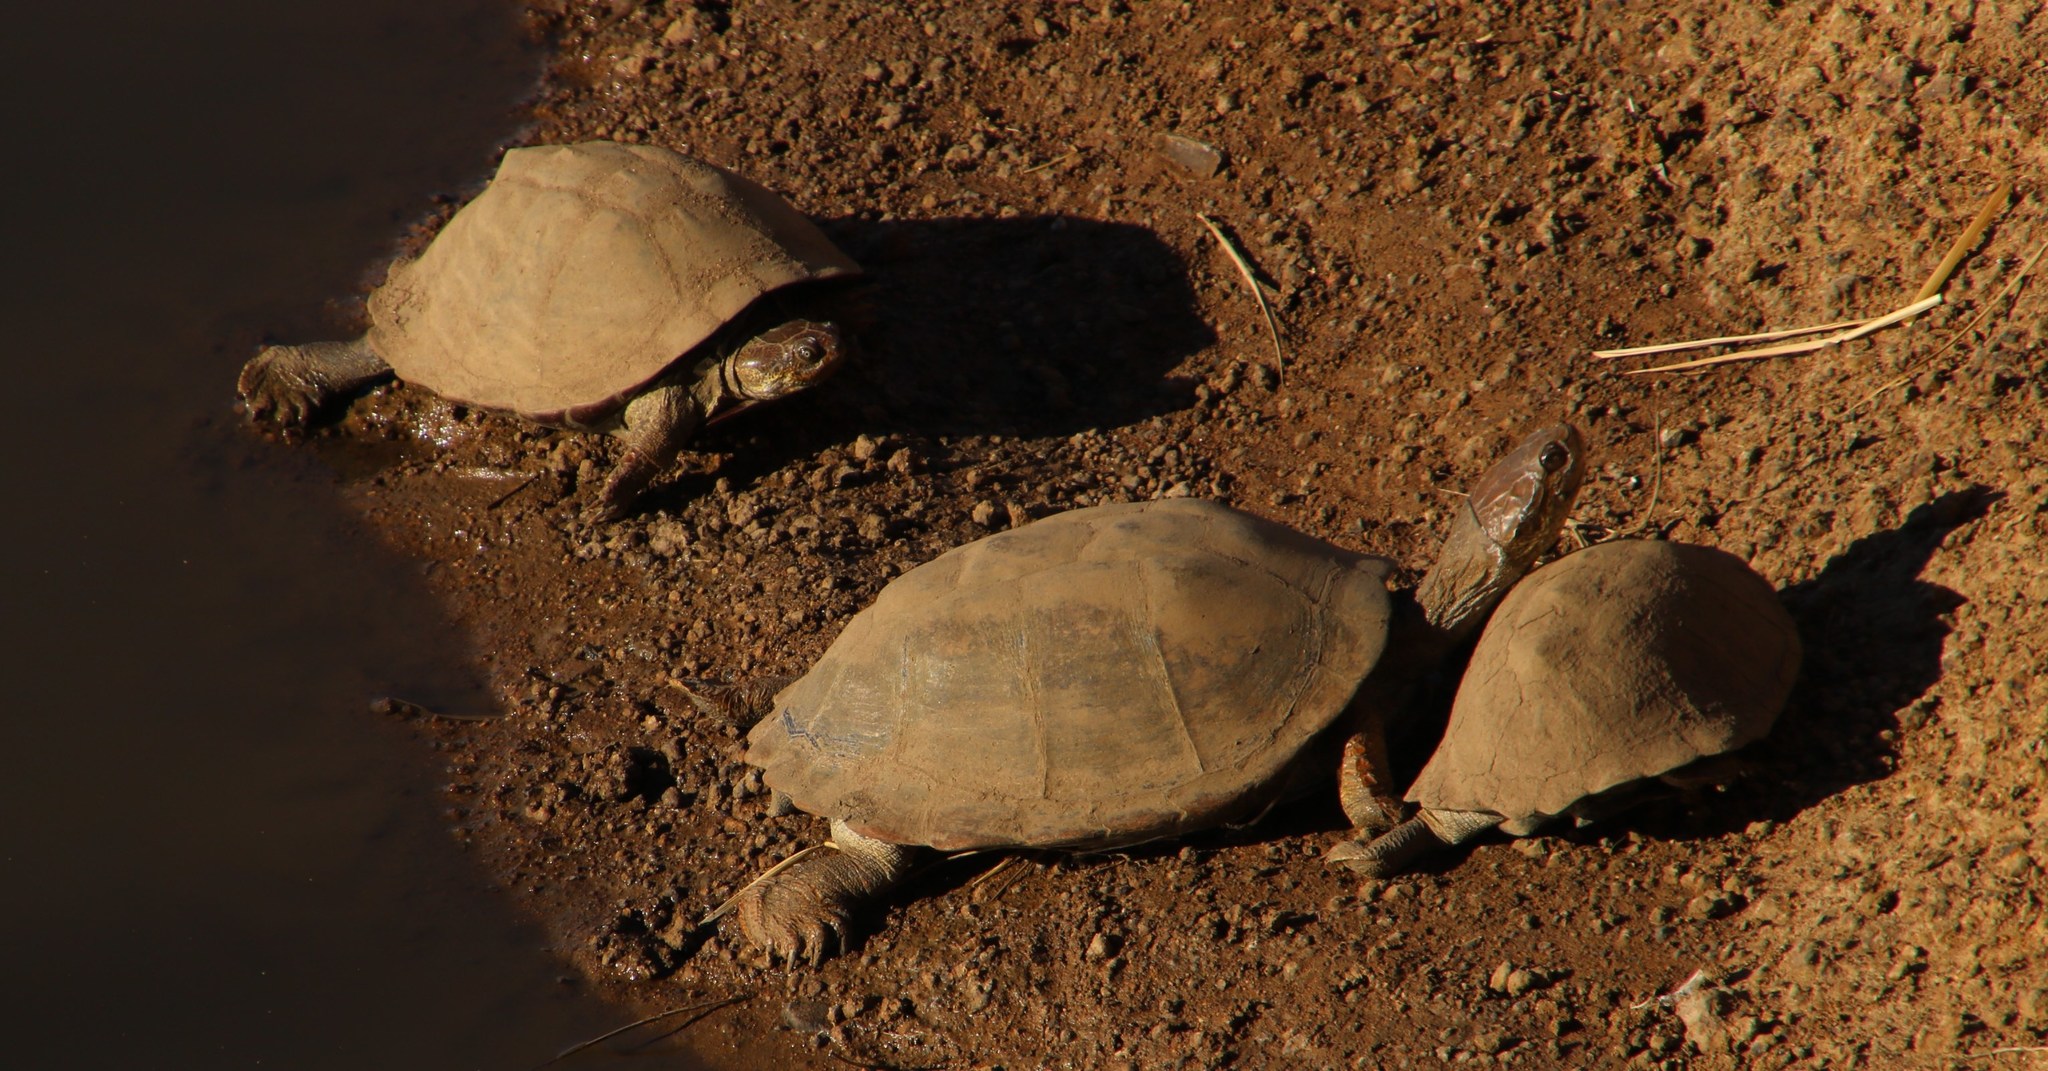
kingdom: Animalia
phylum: Chordata
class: Testudines
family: Pelomedusidae
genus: Pelusios
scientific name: Pelusios sinuatus
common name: Serrated hinged terrapin
